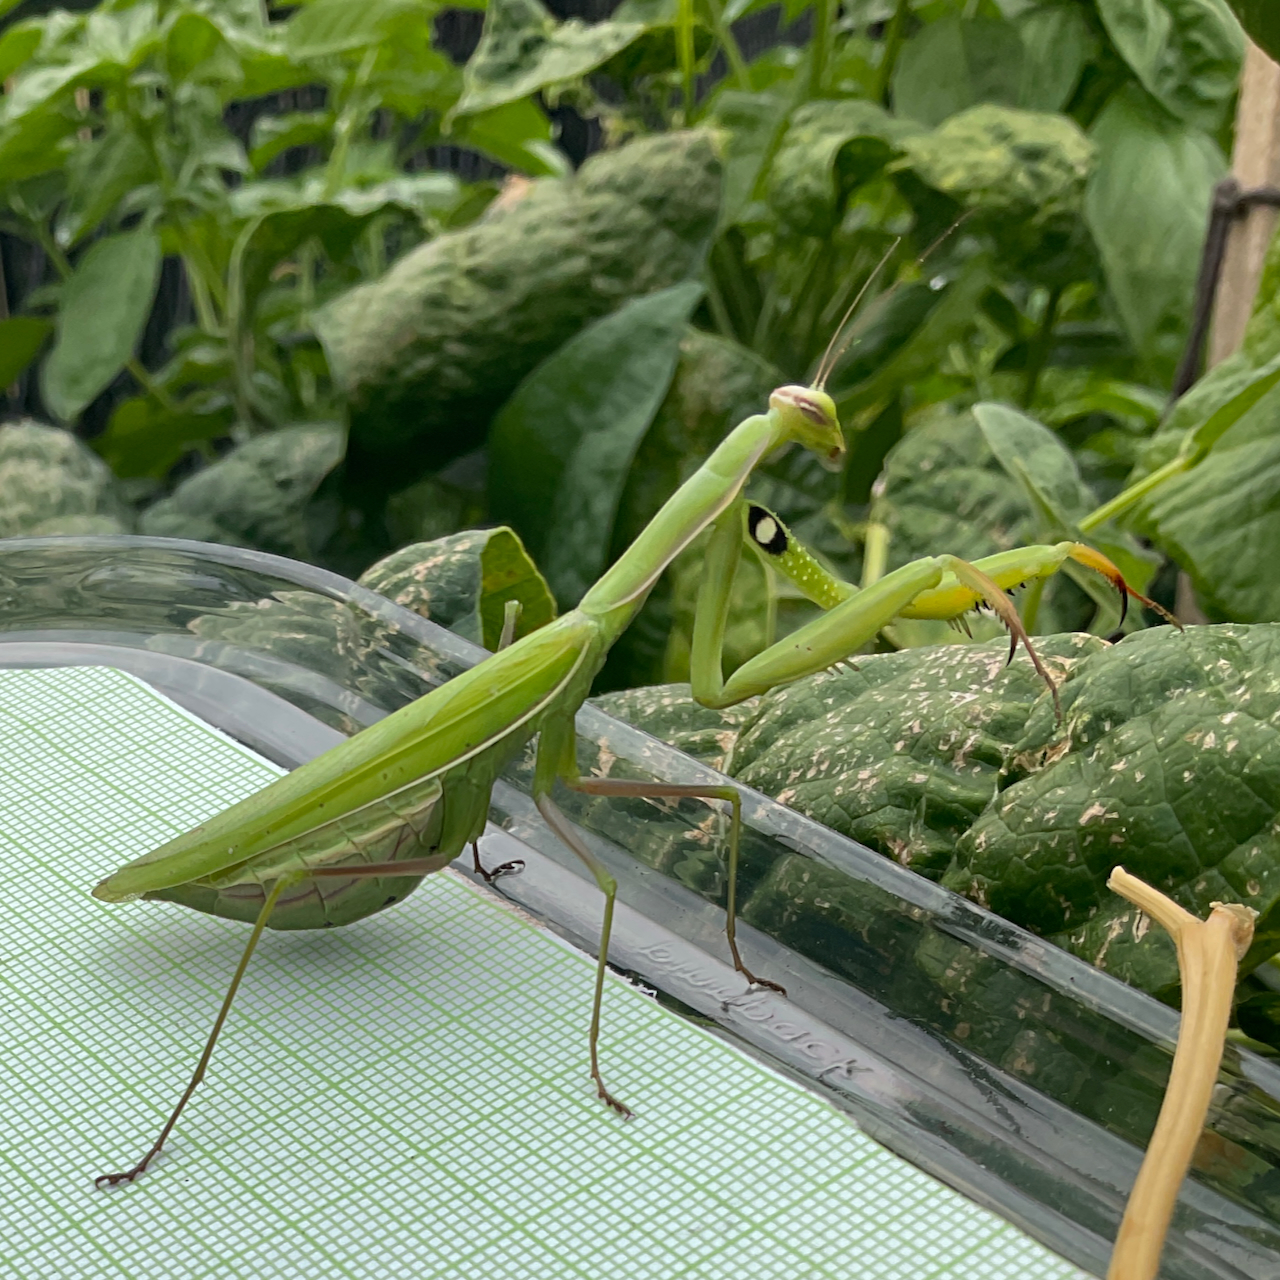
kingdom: Animalia
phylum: Arthropoda
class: Insecta
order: Mantodea
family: Mantidae
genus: Mantis
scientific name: Mantis religiosa
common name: Praying mantis
